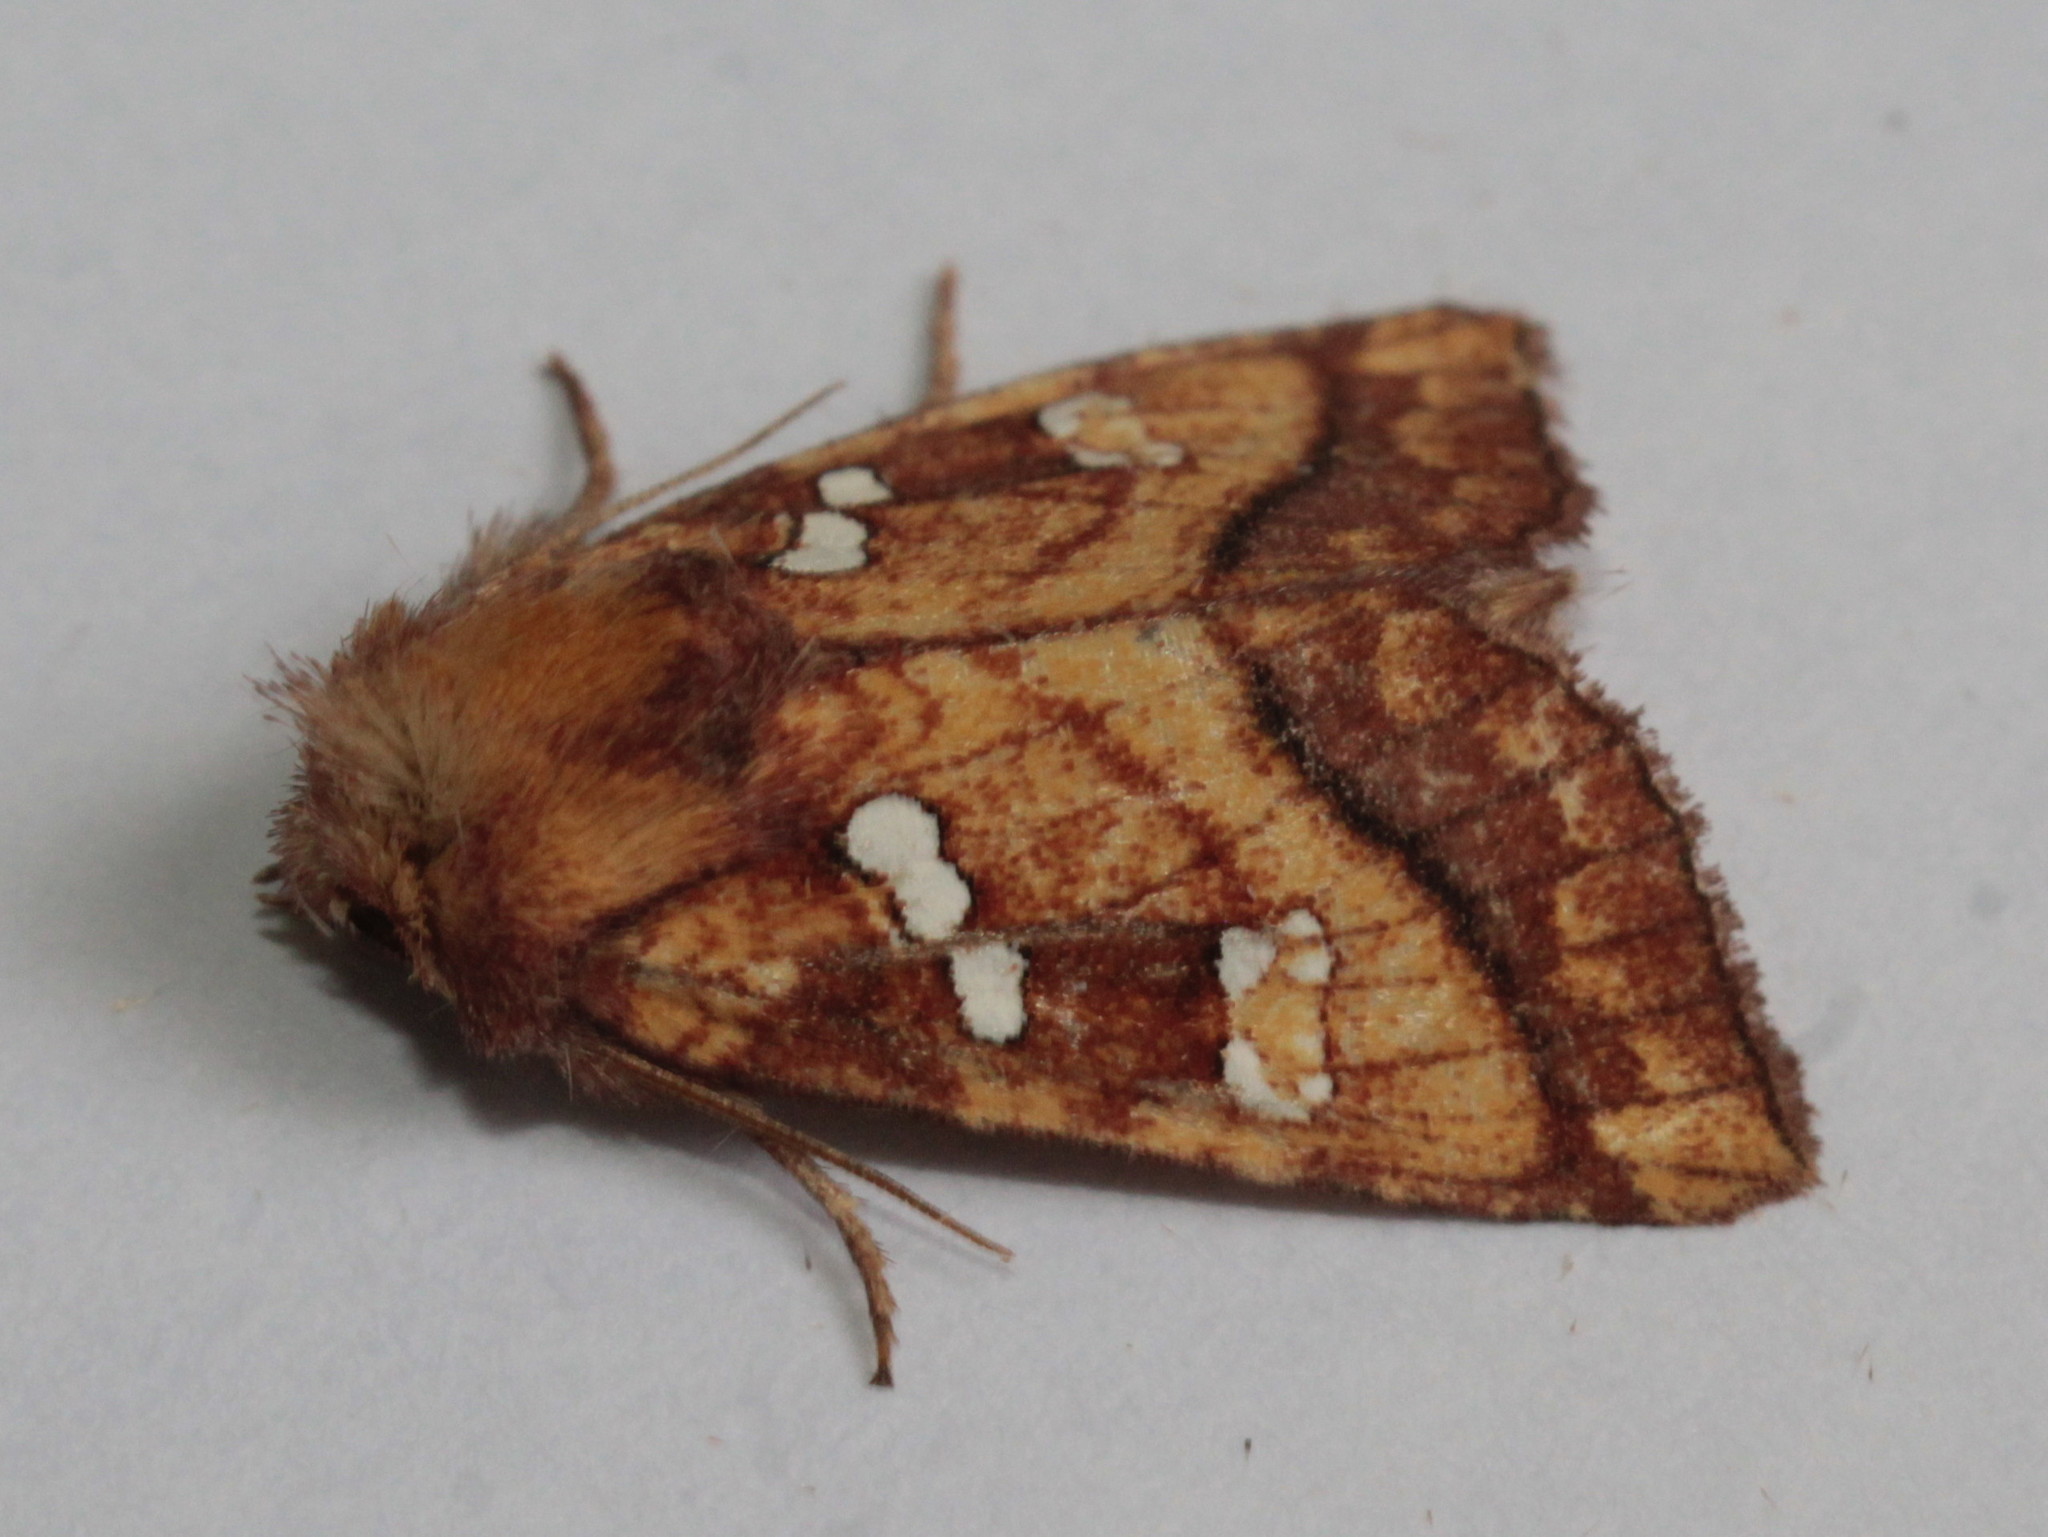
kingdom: Animalia
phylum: Arthropoda
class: Insecta
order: Lepidoptera
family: Noctuidae
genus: Papaipema
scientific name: Papaipema pterisii
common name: Bracken borer moth
